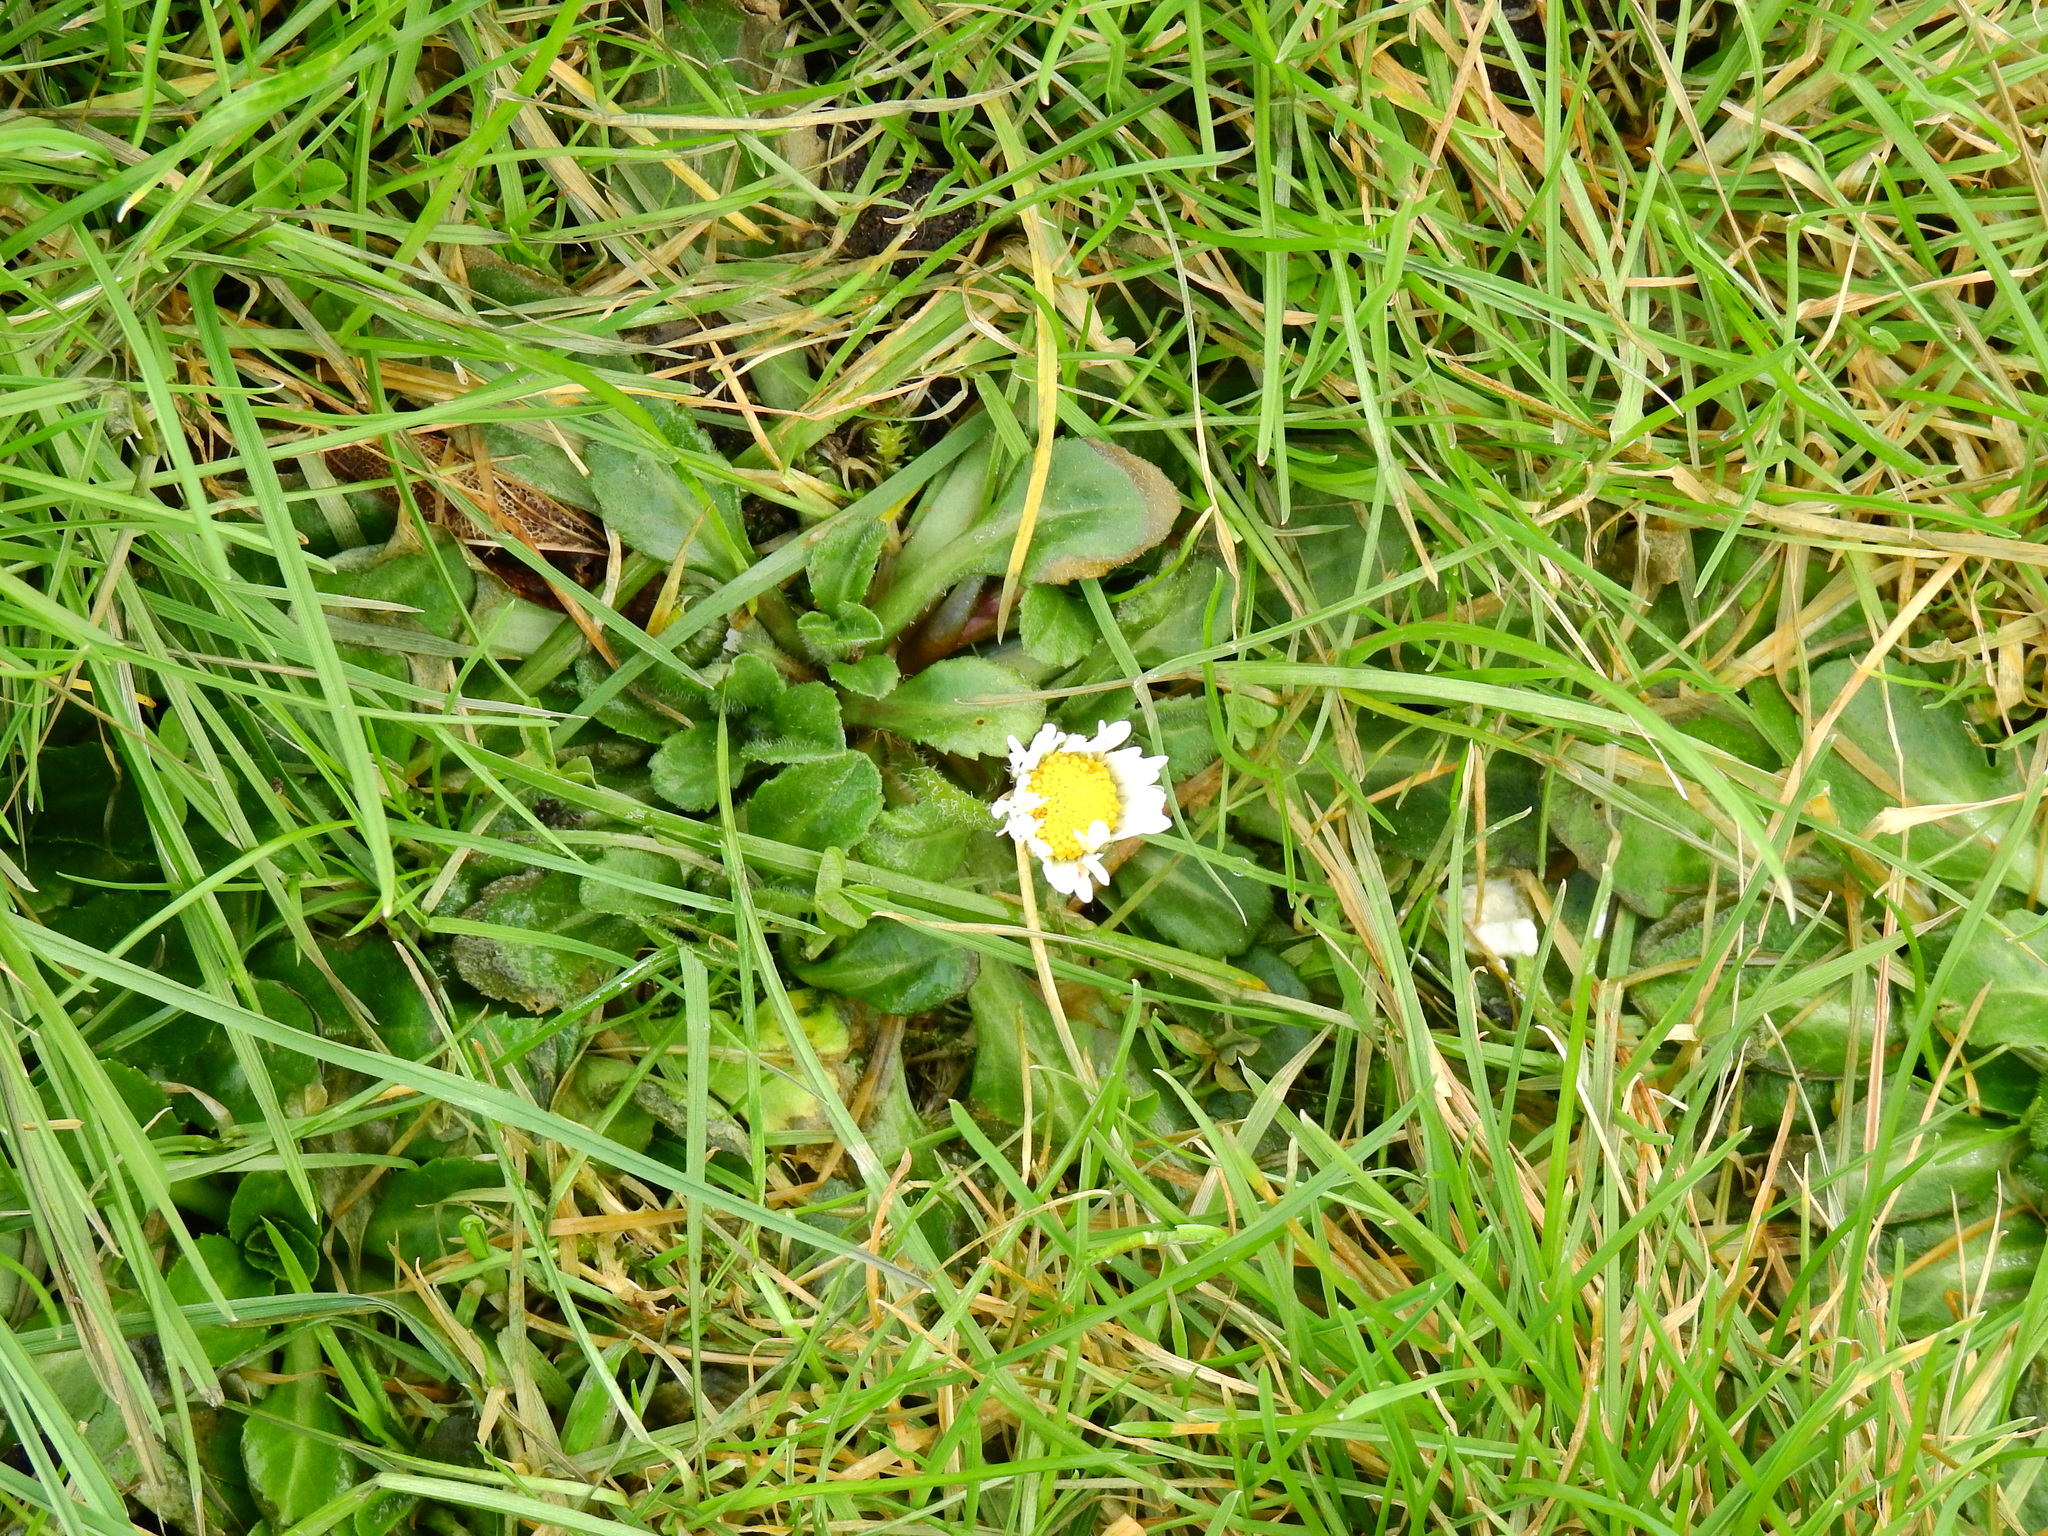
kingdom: Plantae
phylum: Tracheophyta
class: Magnoliopsida
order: Asterales
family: Asteraceae
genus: Bellis
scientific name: Bellis perennis
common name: Lawndaisy
